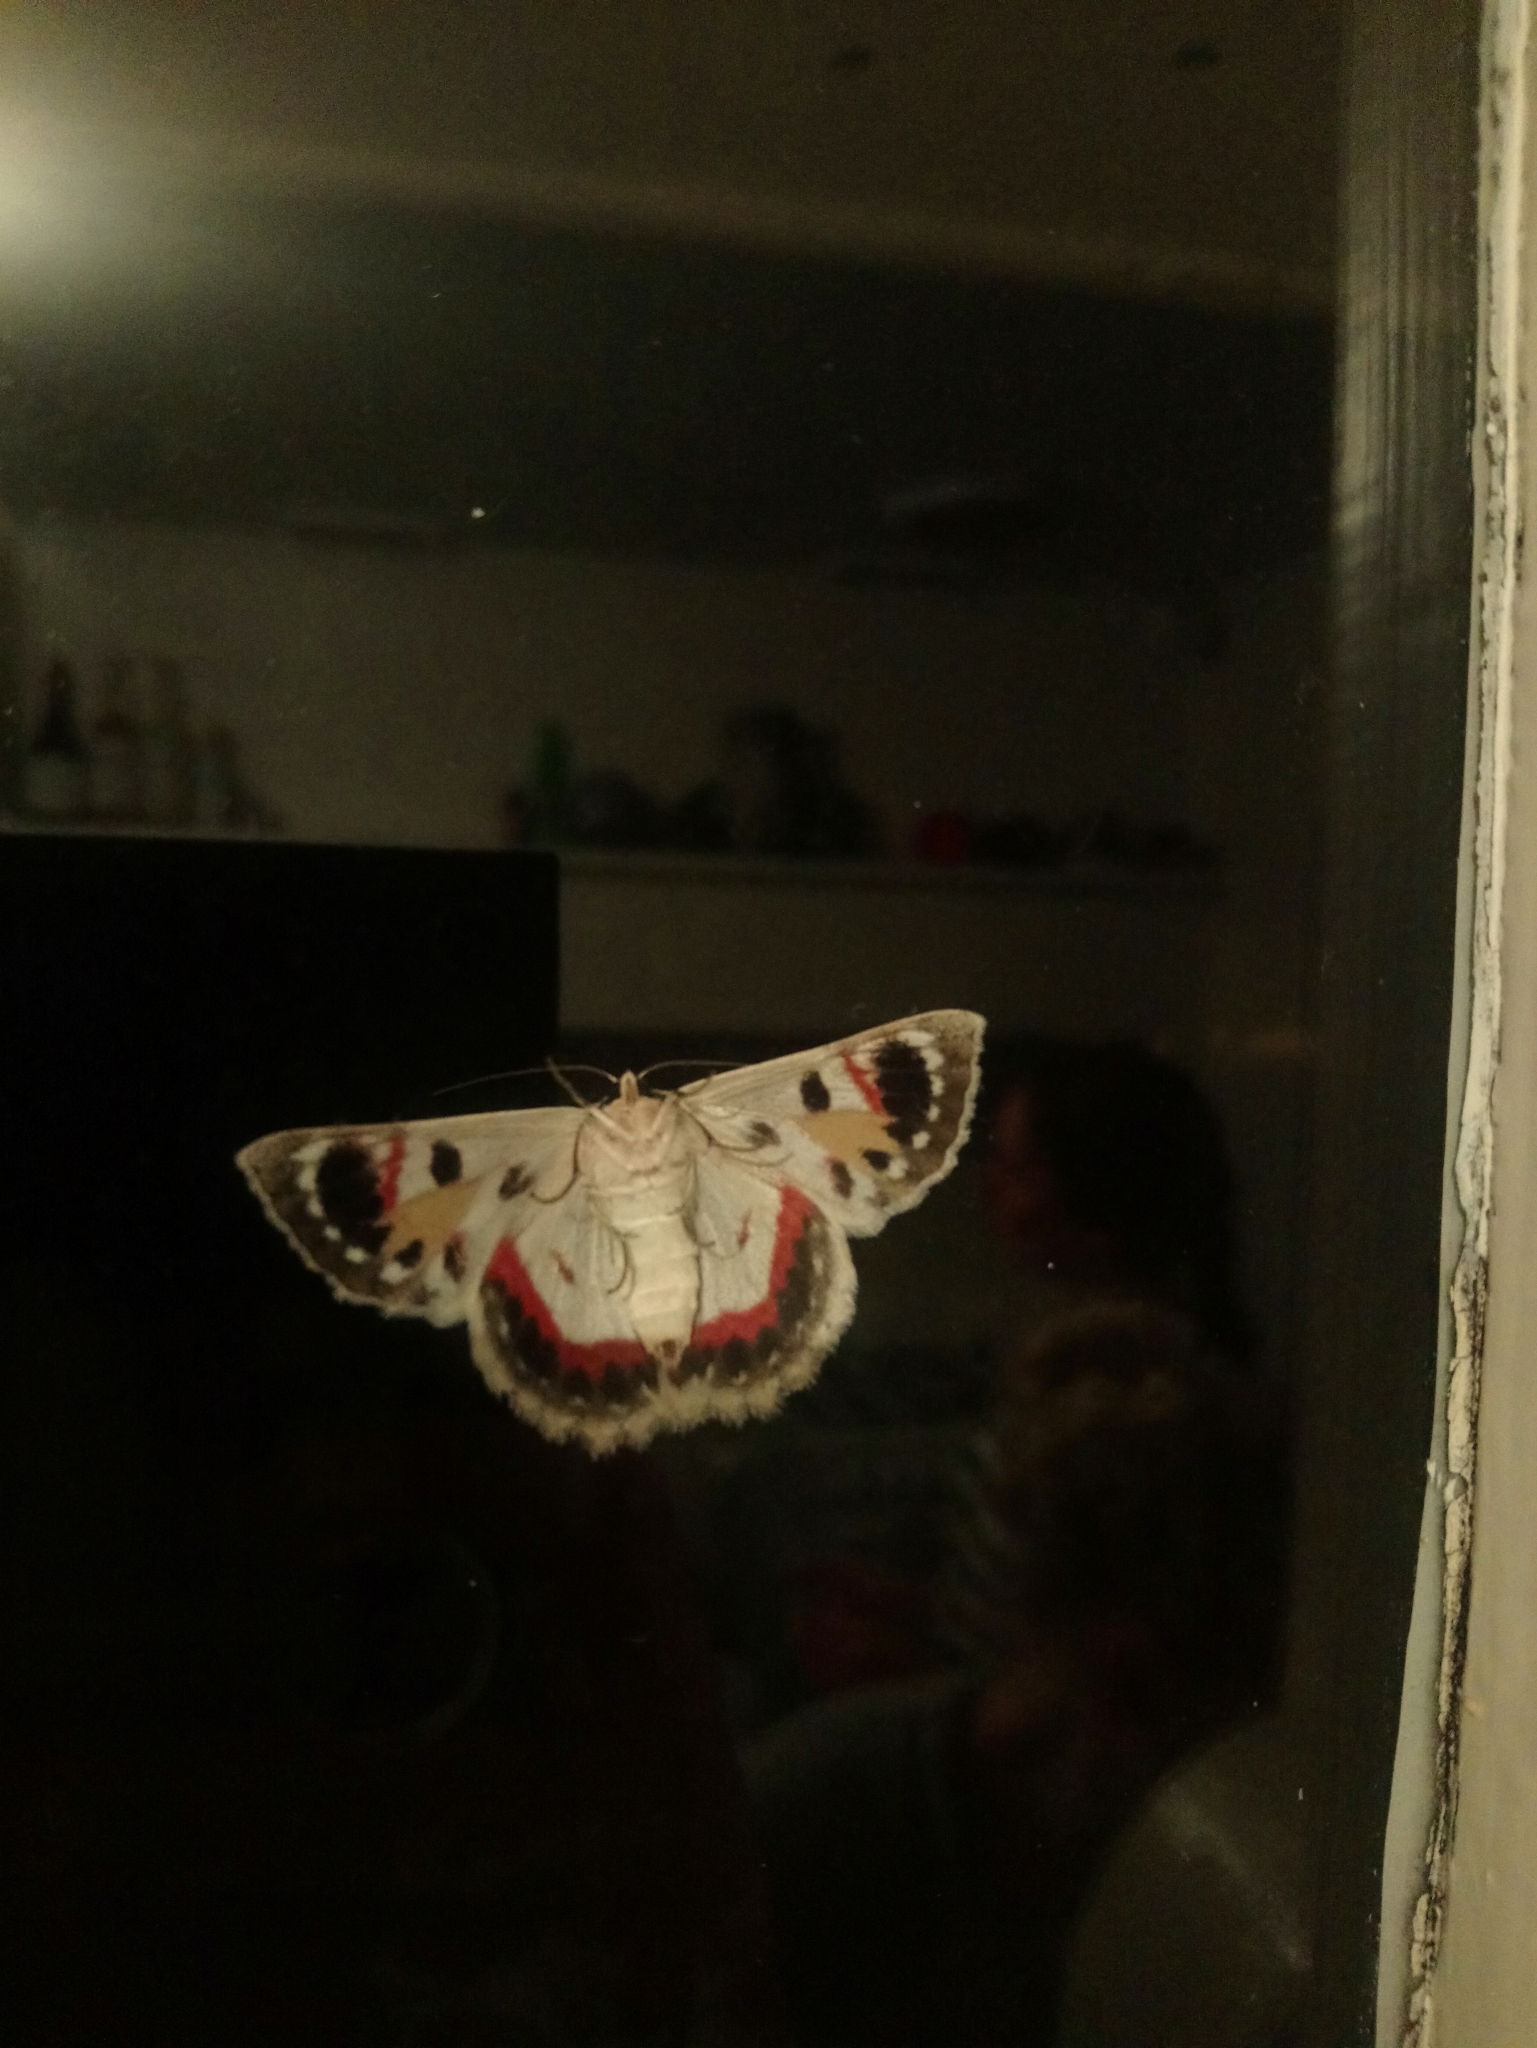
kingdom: Animalia
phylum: Arthropoda
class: Insecta
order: Lepidoptera
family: Geometridae
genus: Crypsiphona
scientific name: Crypsiphona ocultaria
